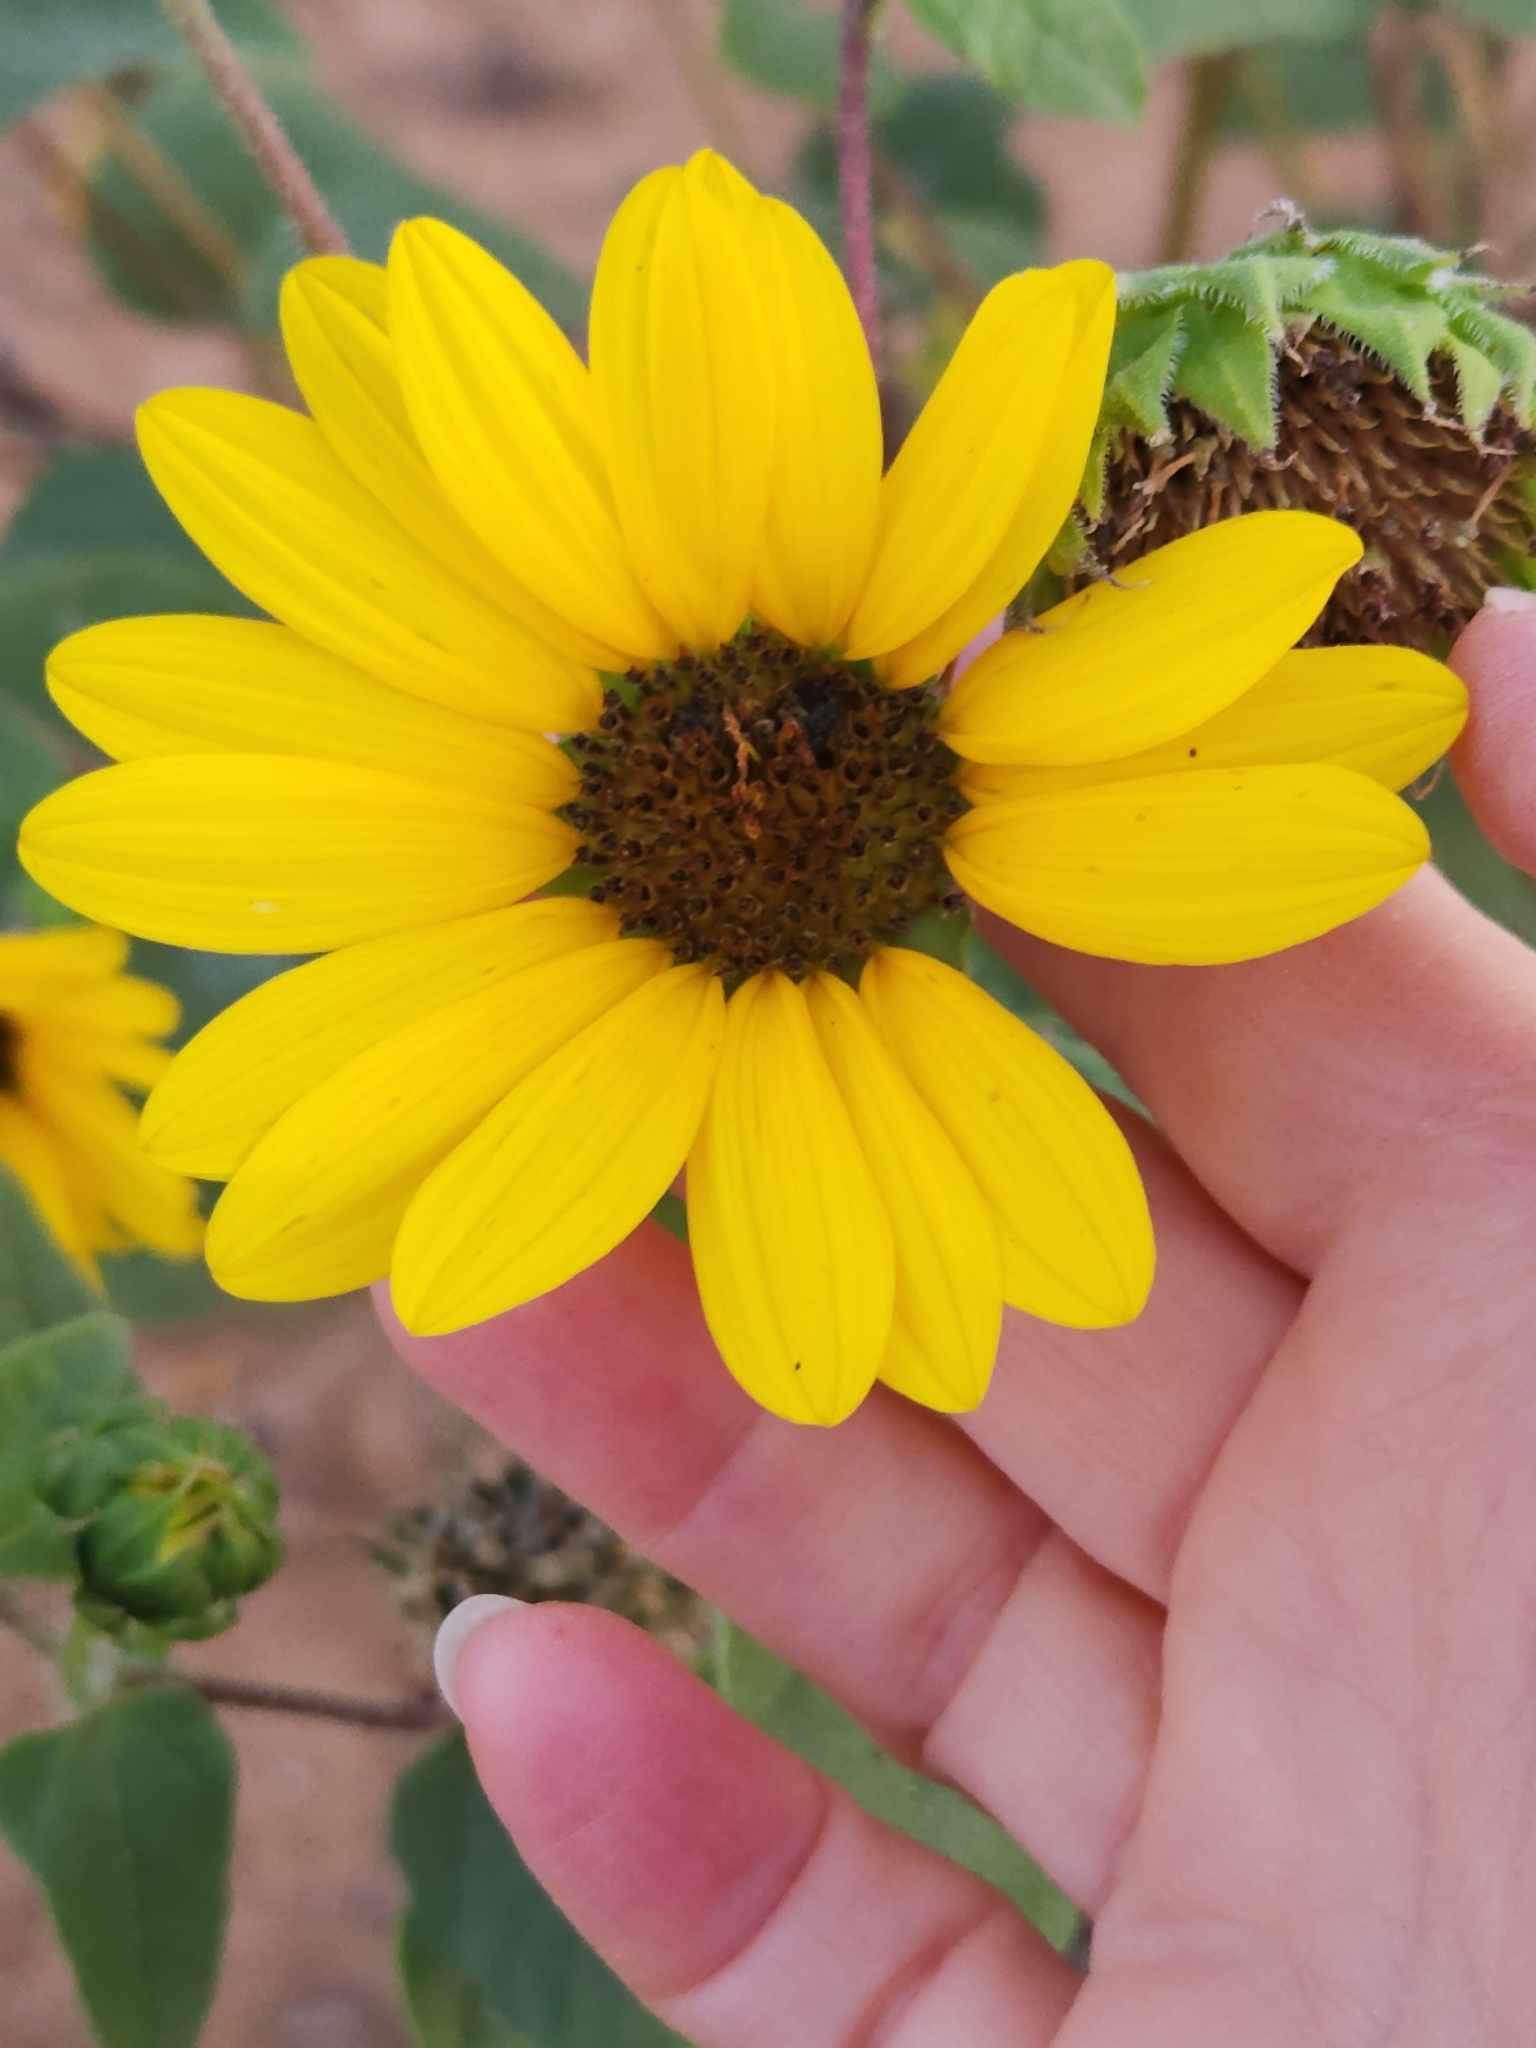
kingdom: Plantae
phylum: Tracheophyta
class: Magnoliopsida
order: Asterales
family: Asteraceae
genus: Helianthus
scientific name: Helianthus annuus
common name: Sunflower
